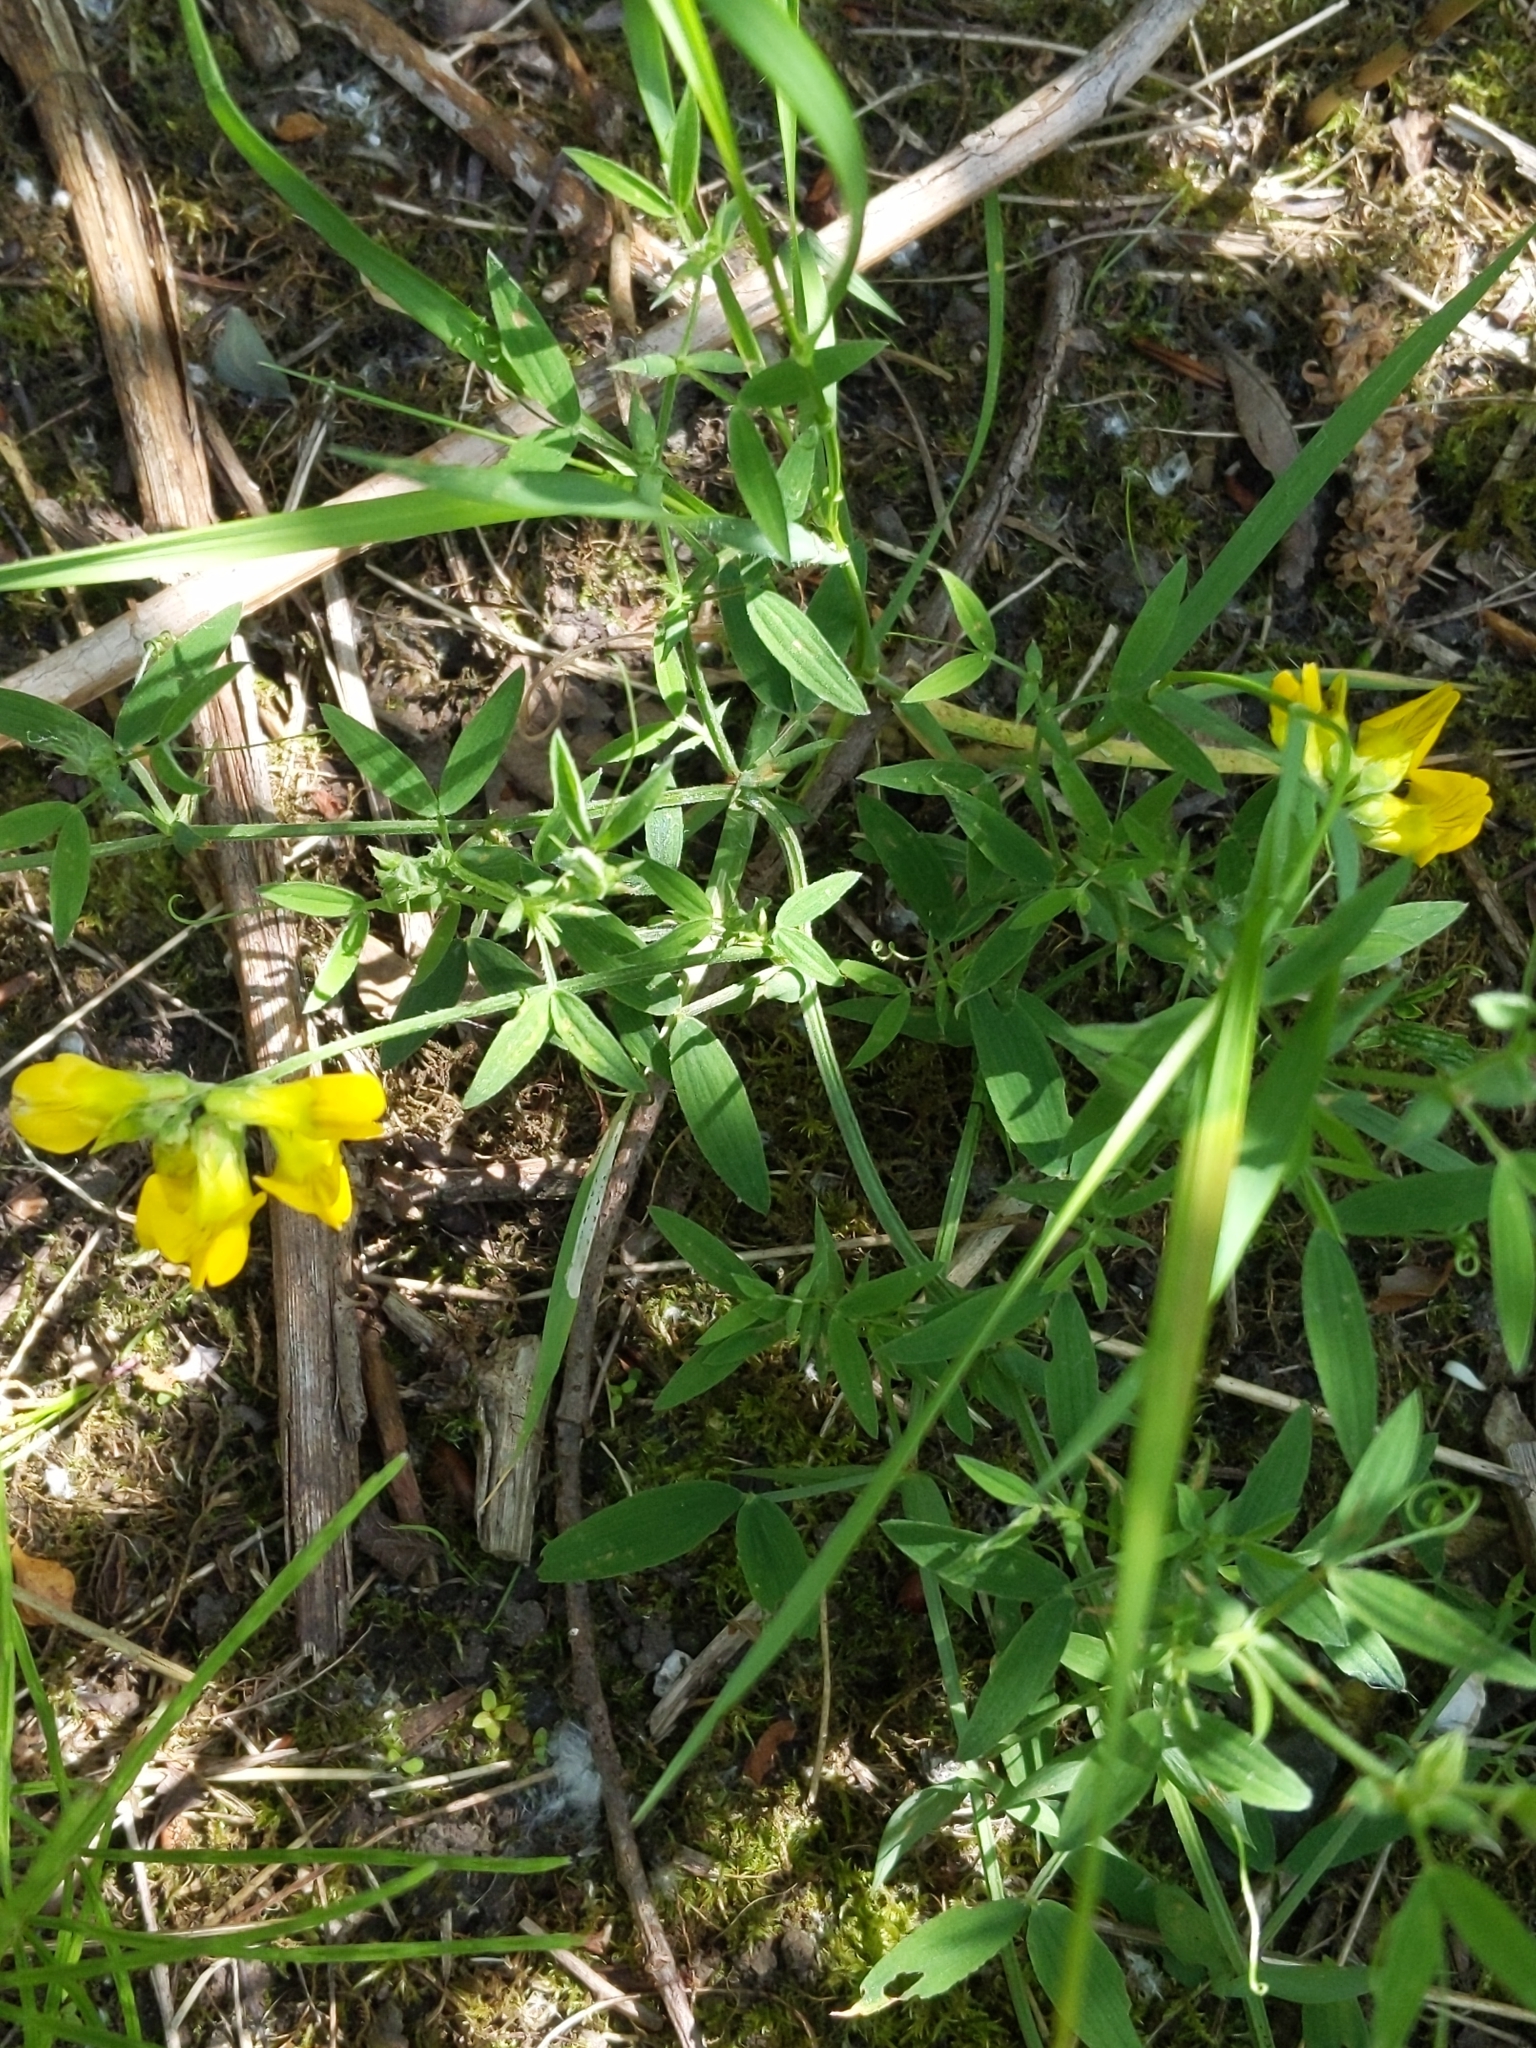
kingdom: Plantae
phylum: Tracheophyta
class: Magnoliopsida
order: Fabales
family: Fabaceae
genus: Lathyrus
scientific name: Lathyrus pratensis
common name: Meadow vetchling
